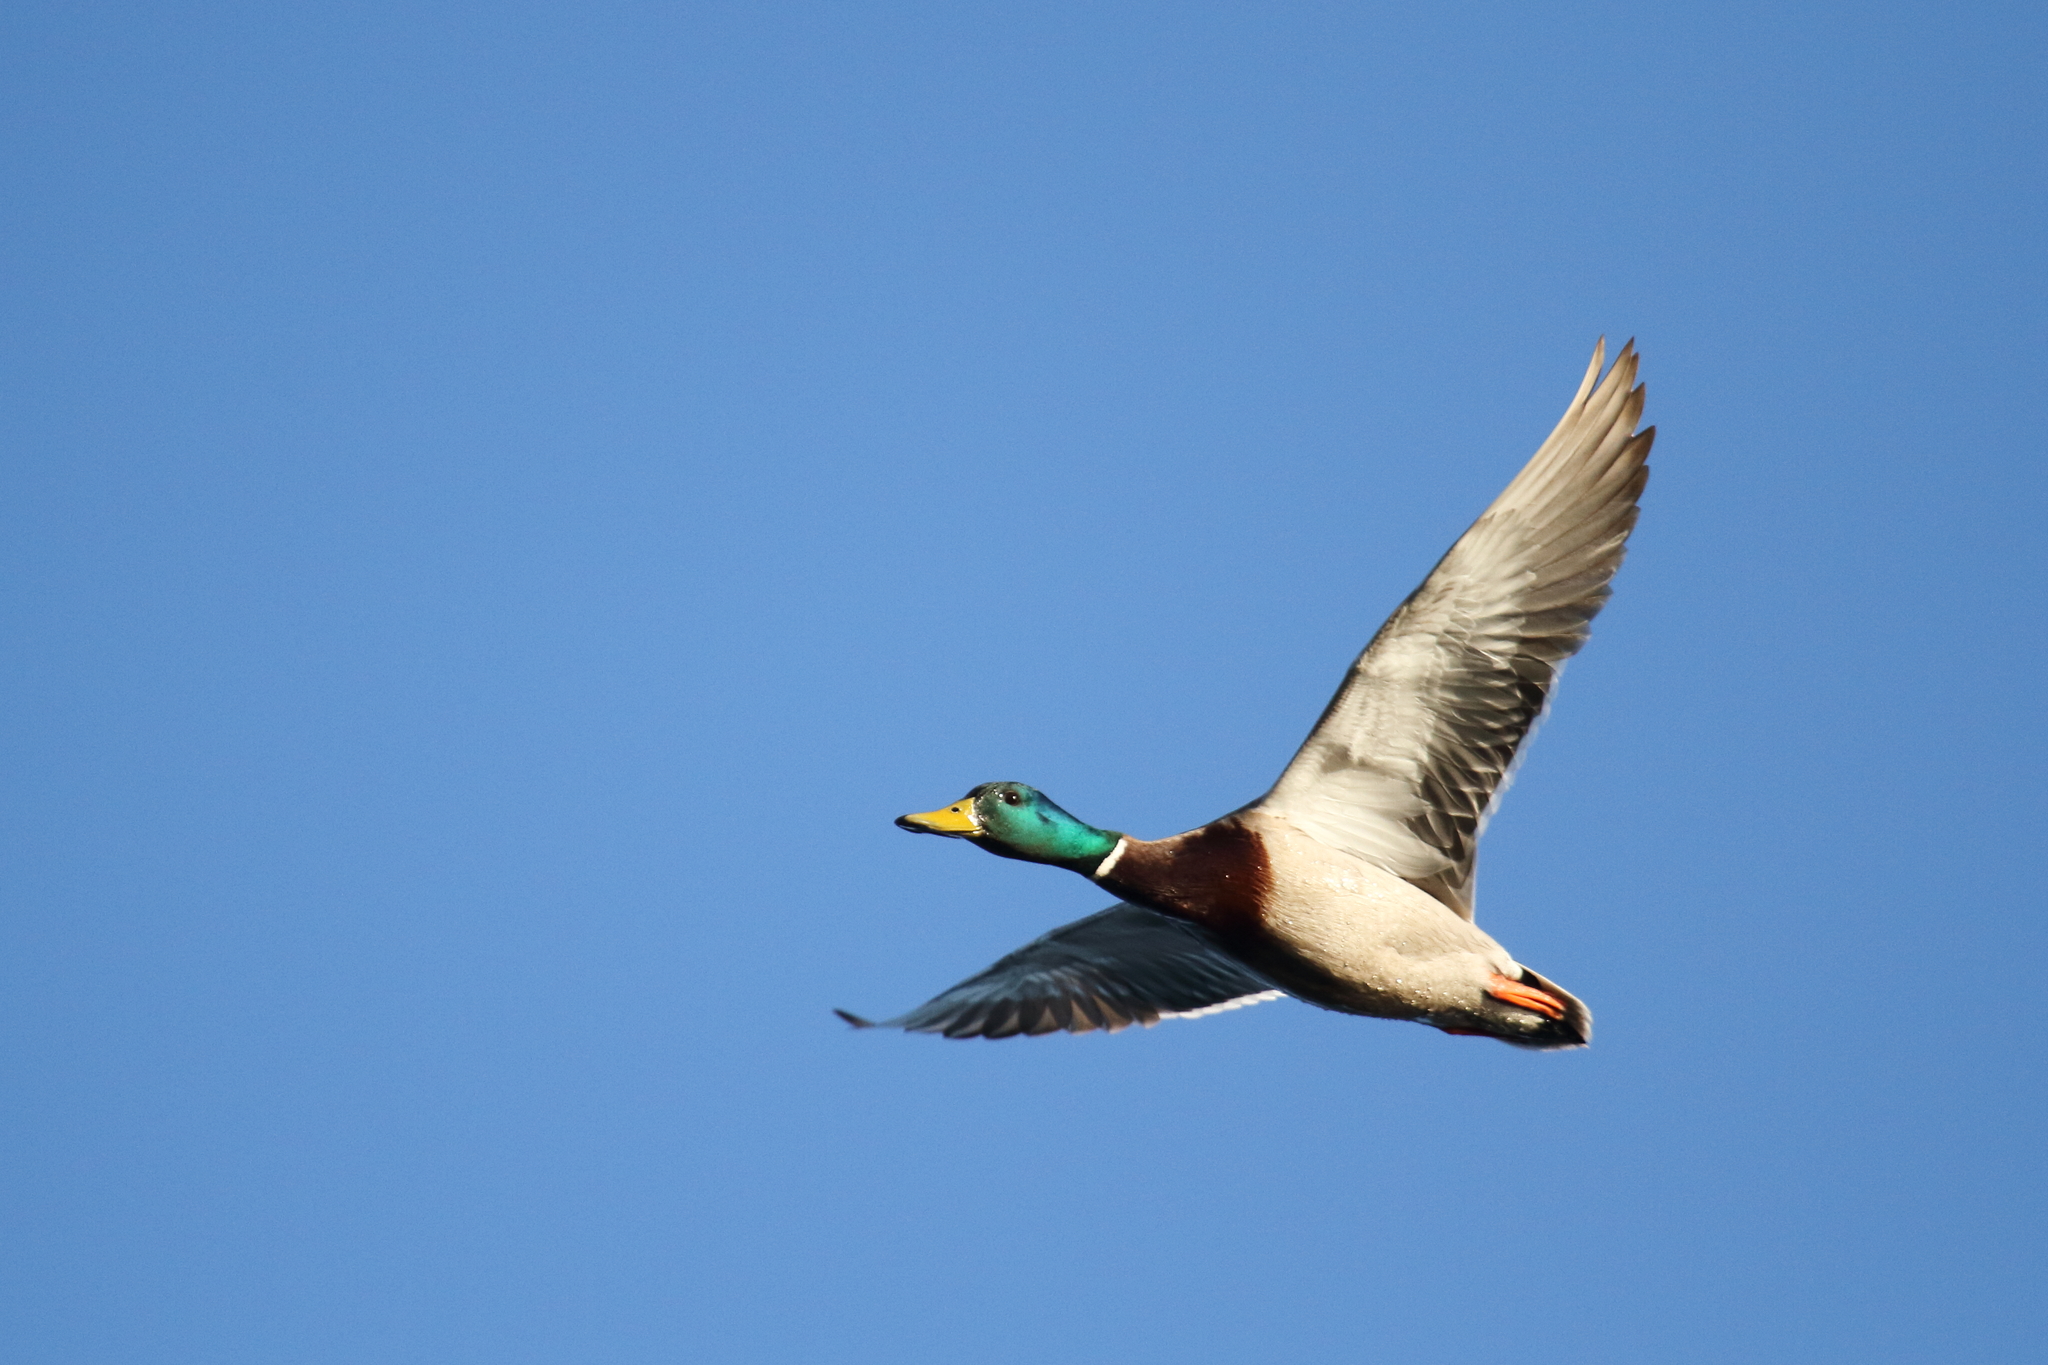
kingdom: Animalia
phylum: Chordata
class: Aves
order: Anseriformes
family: Anatidae
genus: Anas
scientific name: Anas platyrhynchos
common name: Mallard
